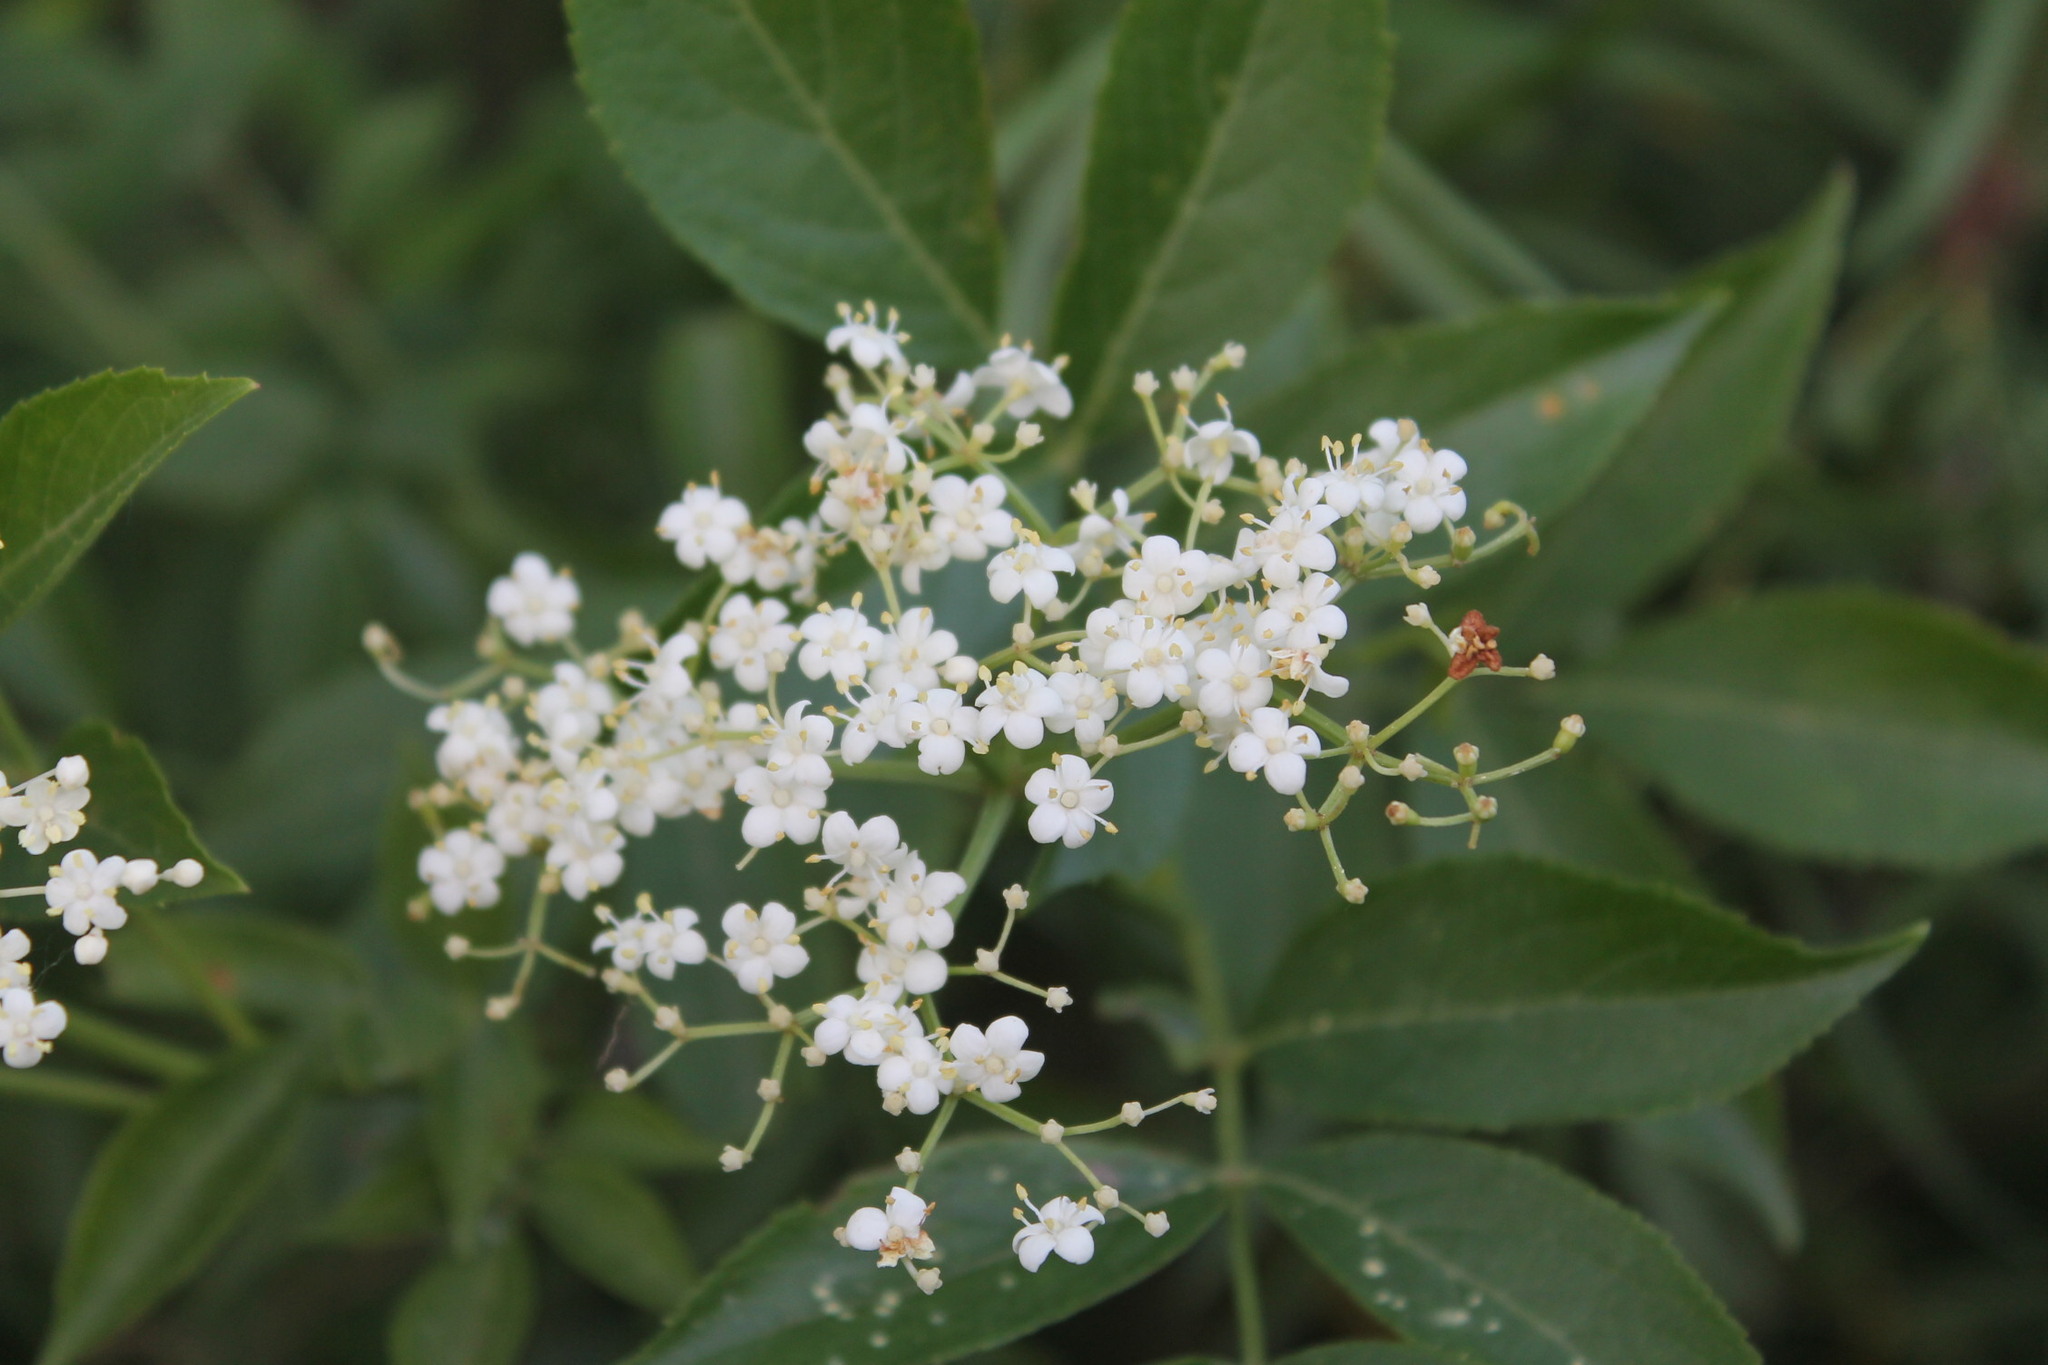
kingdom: Plantae
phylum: Tracheophyta
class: Magnoliopsida
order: Dipsacales
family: Viburnaceae
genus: Sambucus
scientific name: Sambucus canadensis
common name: American elder
